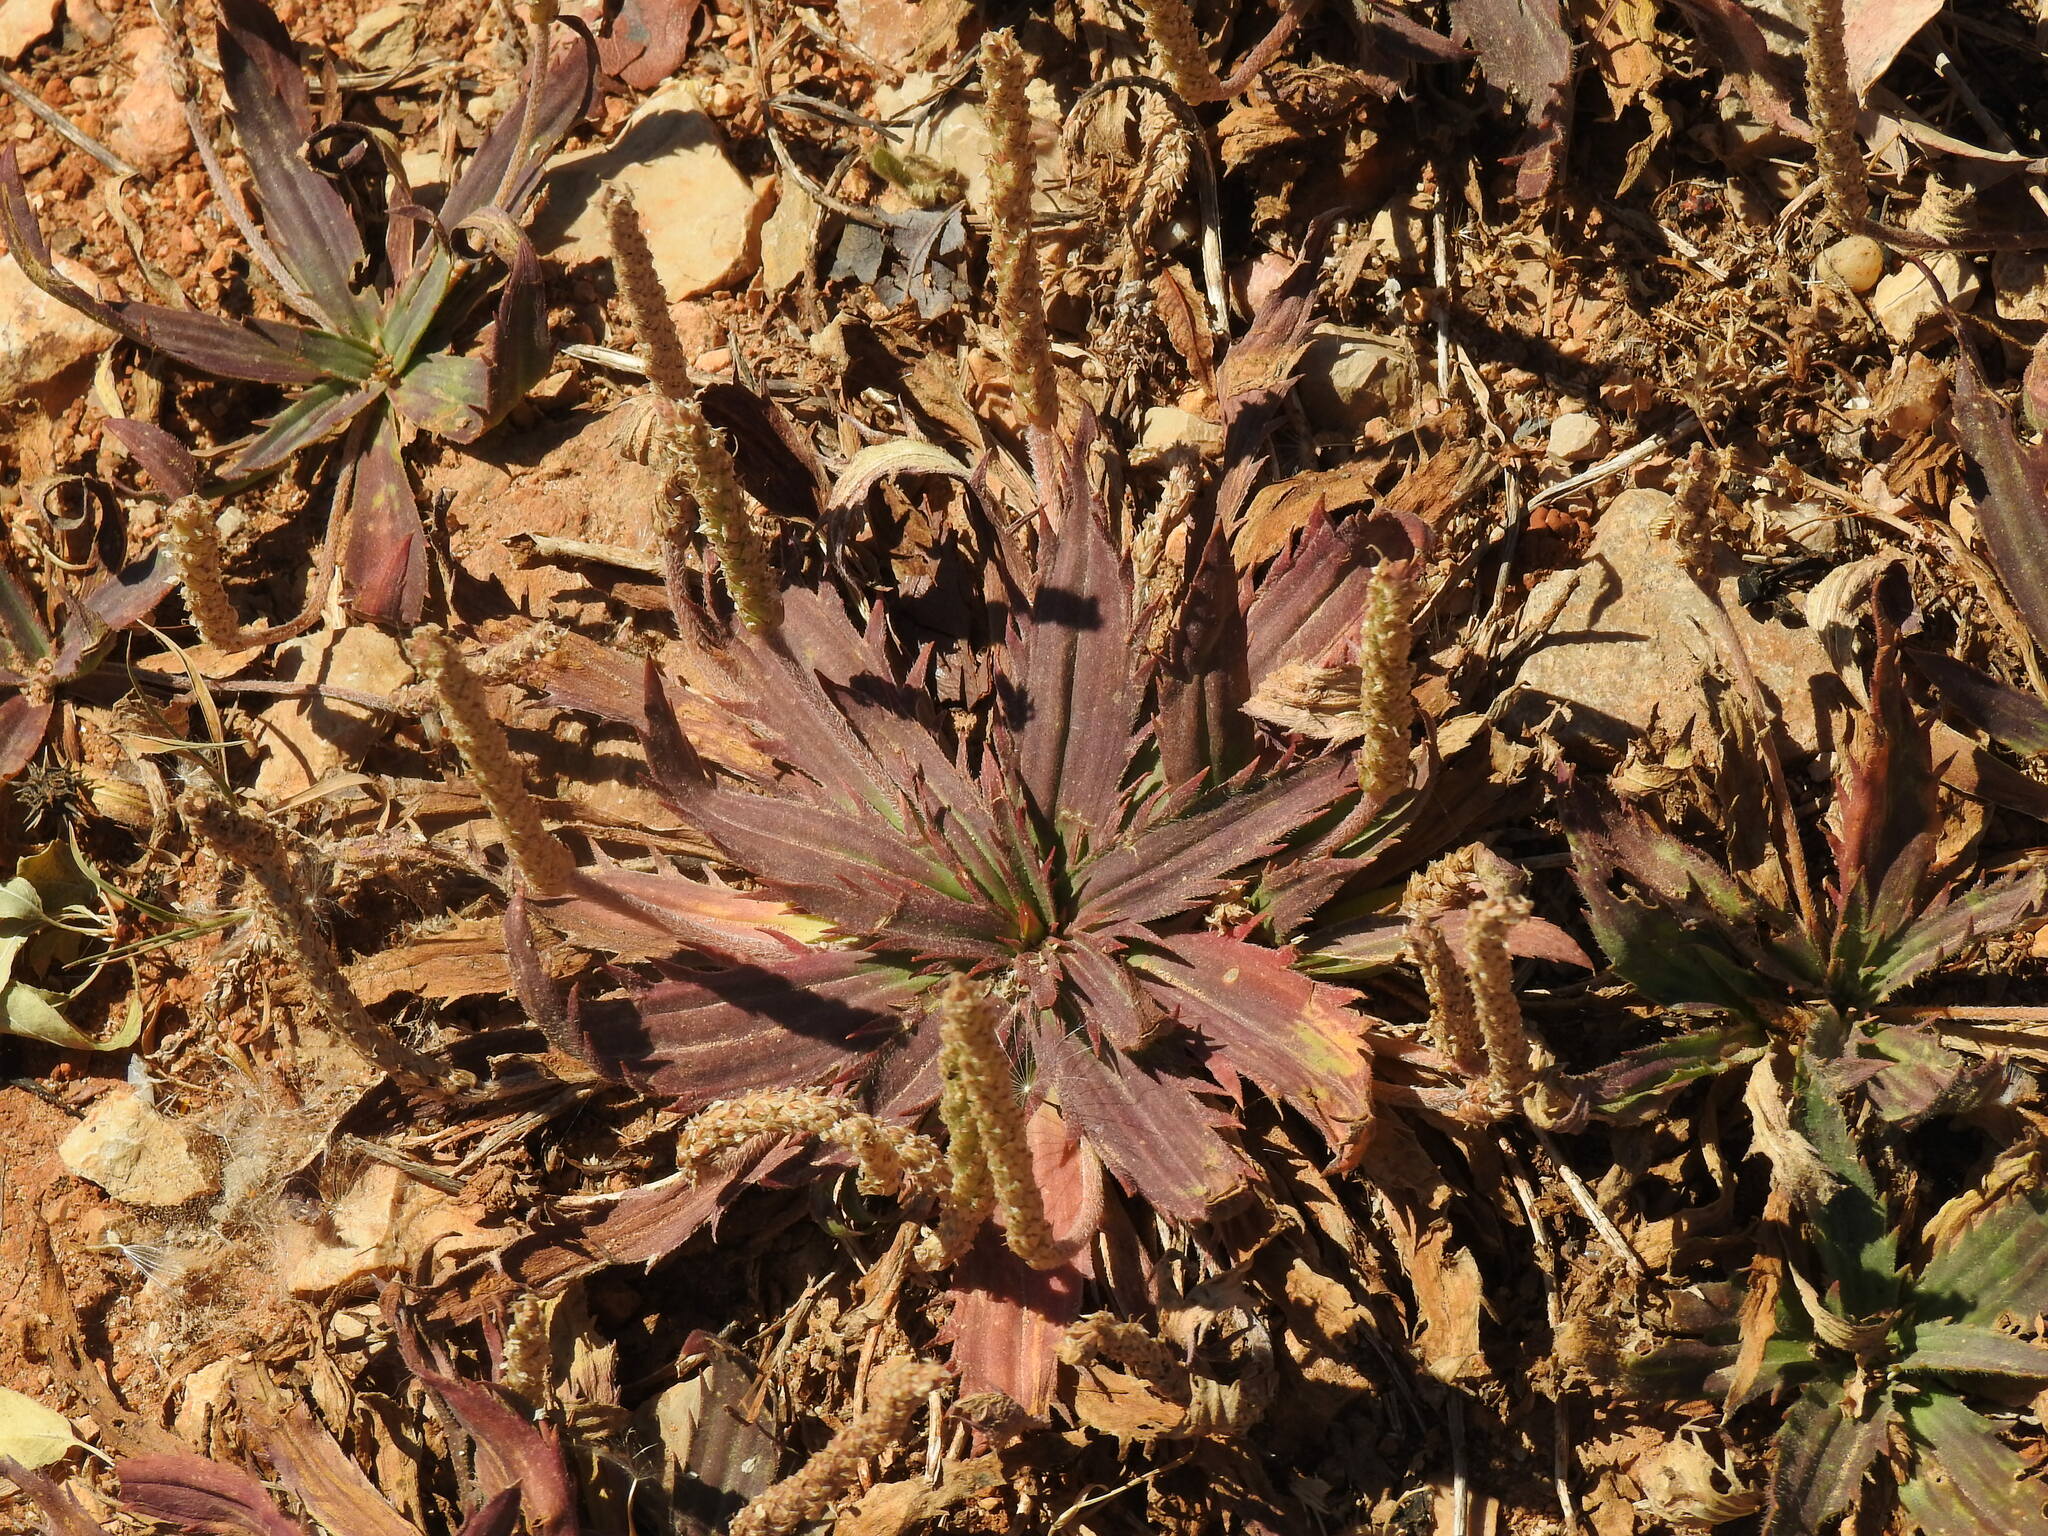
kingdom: Plantae
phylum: Tracheophyta
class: Magnoliopsida
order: Lamiales
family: Plantaginaceae
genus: Plantago
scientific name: Plantago serraria
